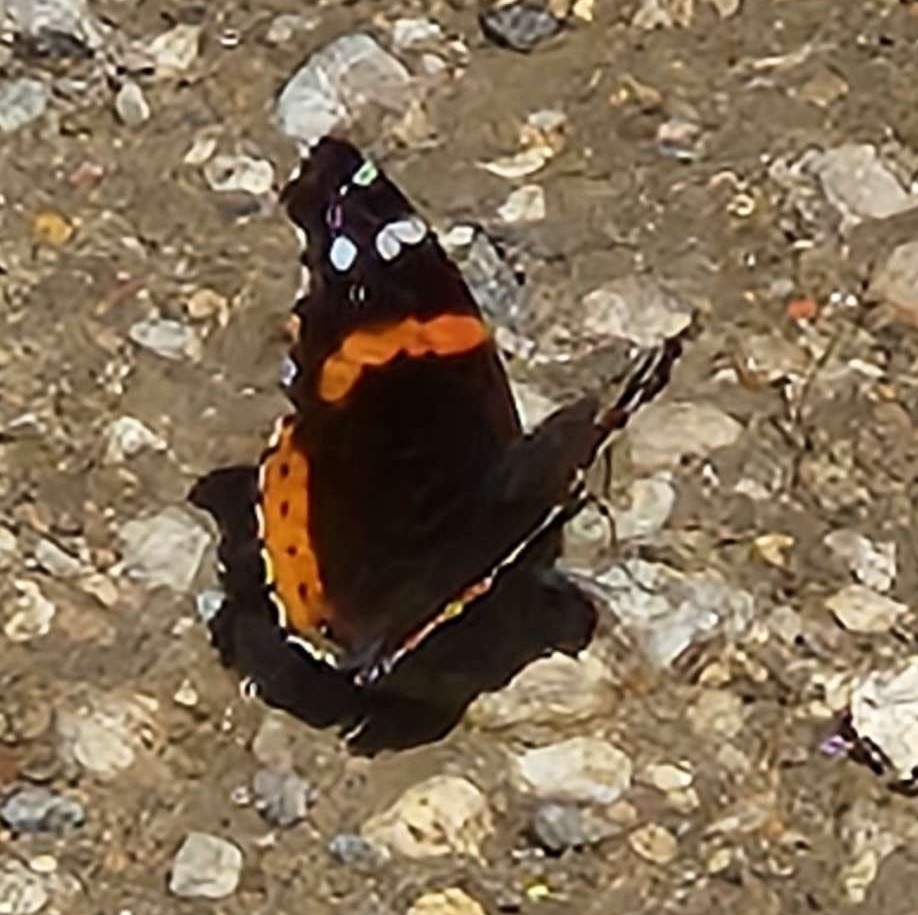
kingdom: Animalia
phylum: Arthropoda
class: Insecta
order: Lepidoptera
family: Nymphalidae
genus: Vanessa
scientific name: Vanessa atalanta
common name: Red admiral
